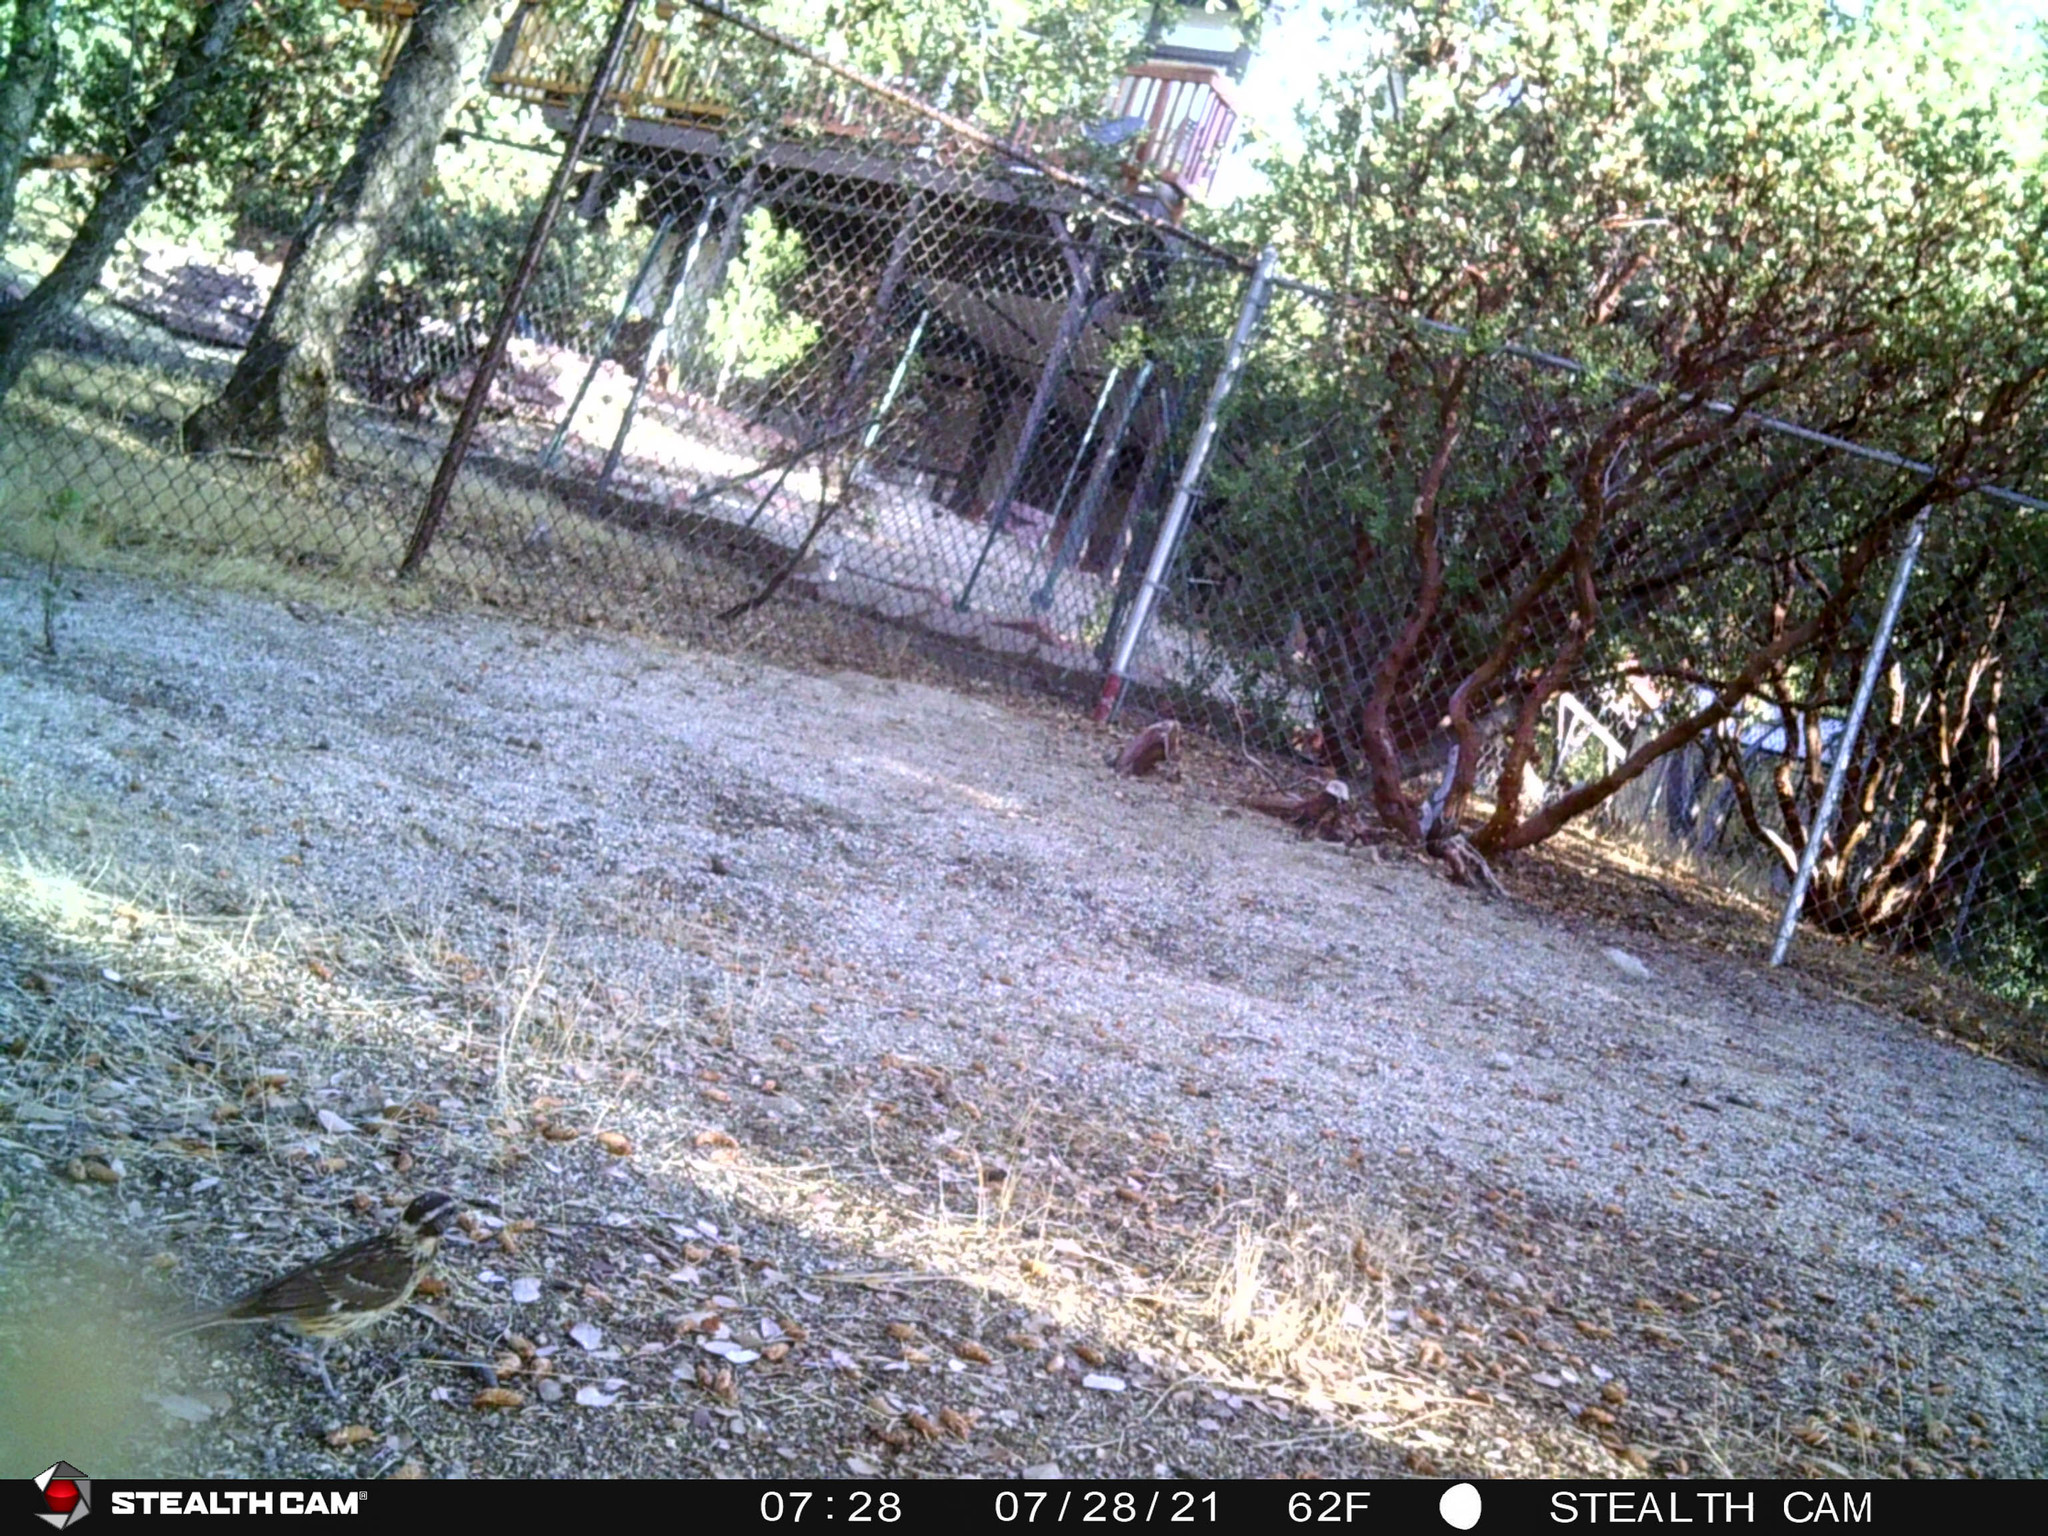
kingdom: Animalia
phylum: Chordata
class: Aves
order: Passeriformes
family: Cardinalidae
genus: Pheucticus
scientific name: Pheucticus melanocephalus
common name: Black-headed grosbeak
